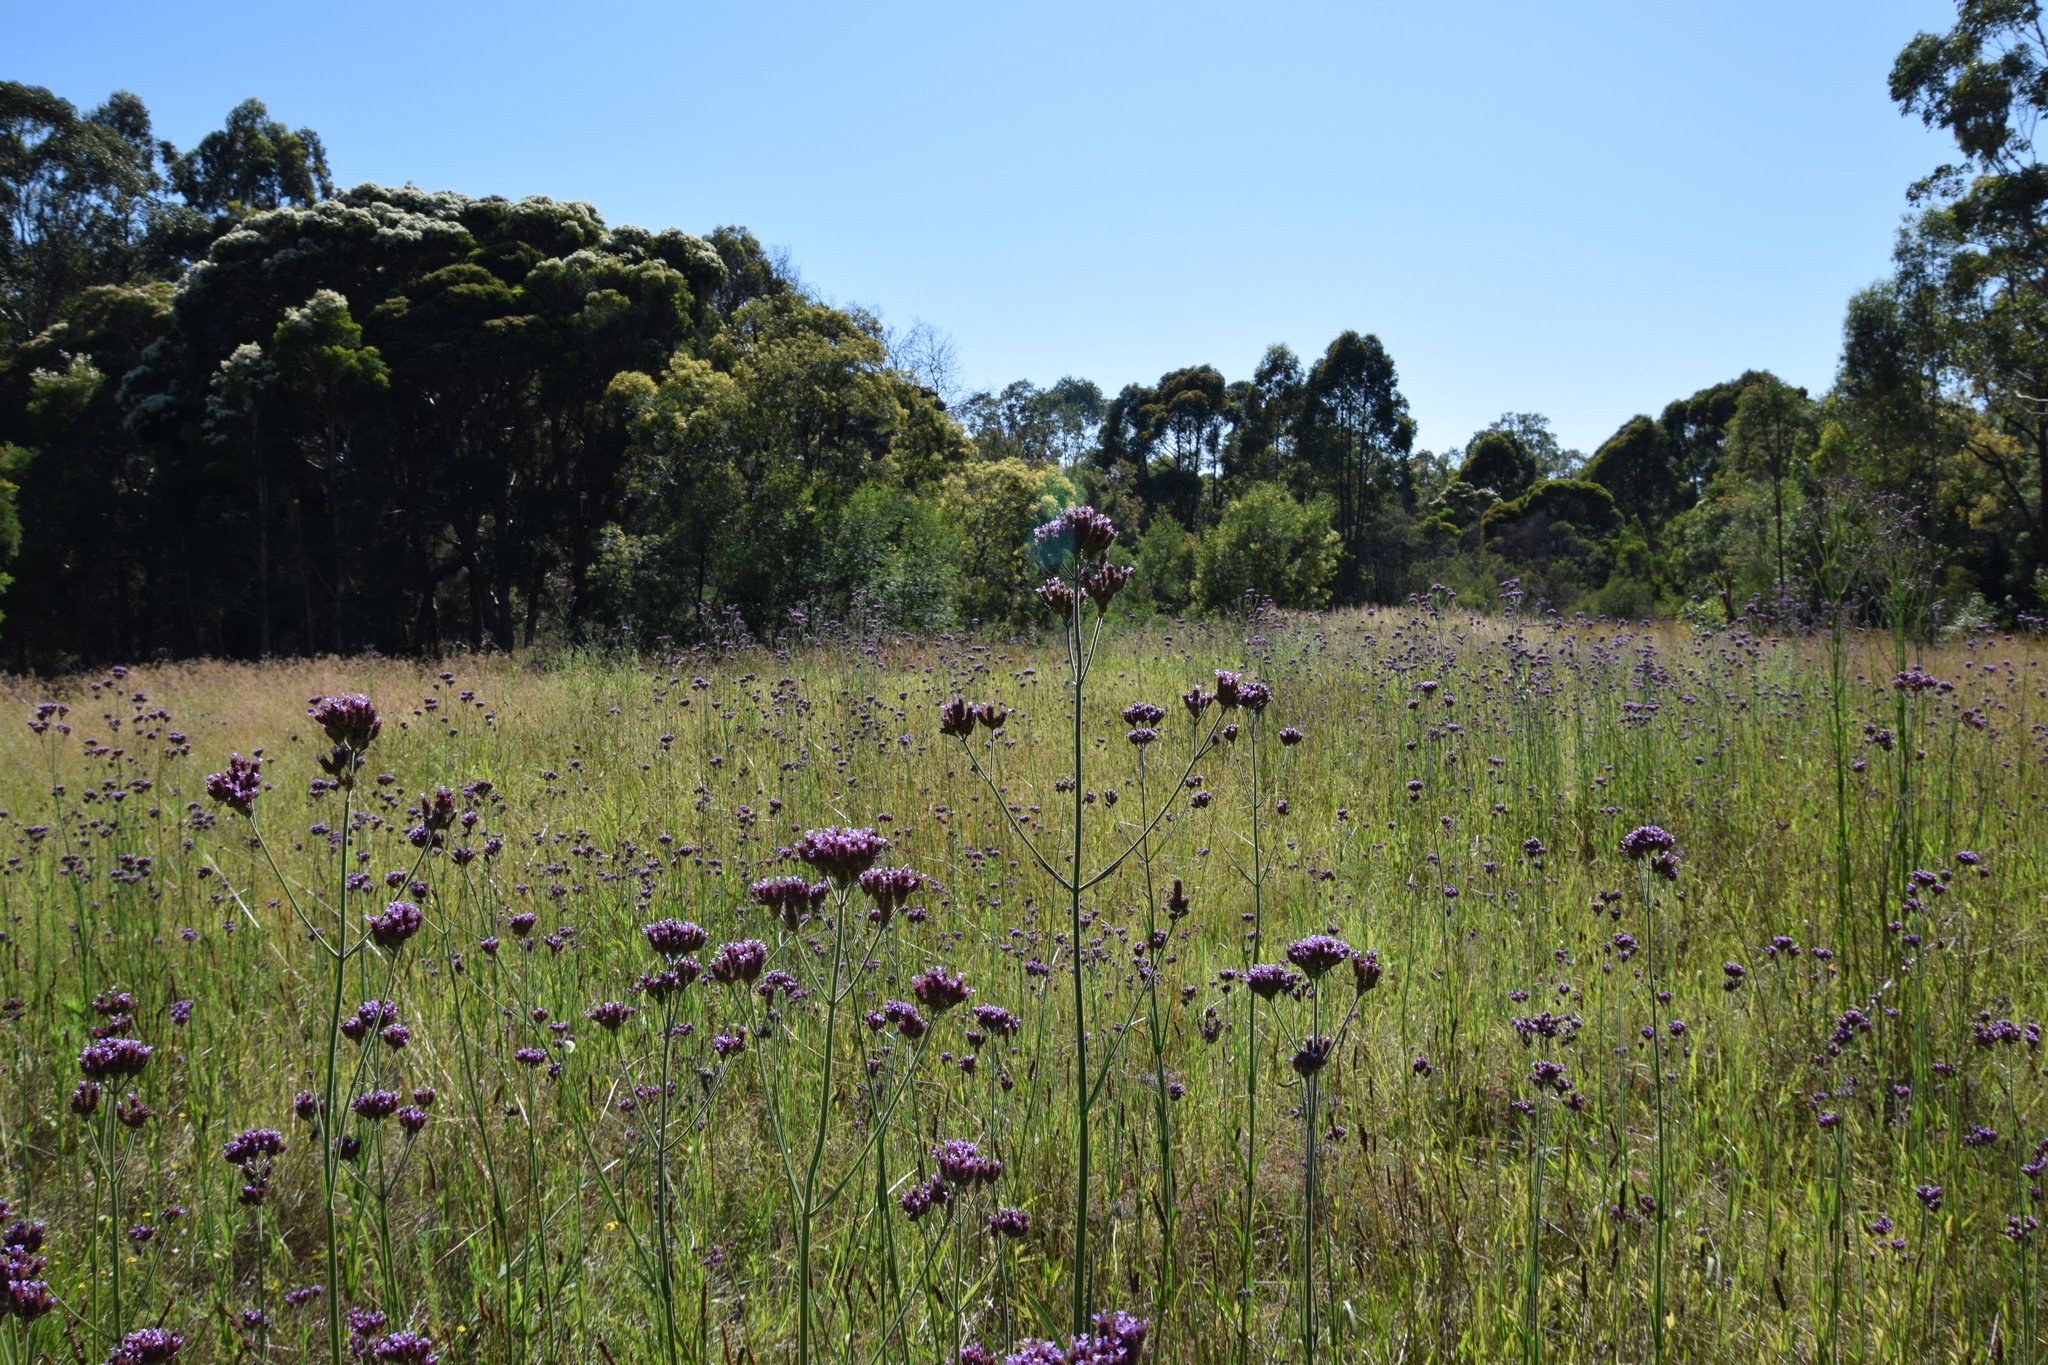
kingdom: Plantae
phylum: Tracheophyta
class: Magnoliopsida
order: Lamiales
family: Verbenaceae
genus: Verbena
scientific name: Verbena bonariensis
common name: Purpletop vervain
